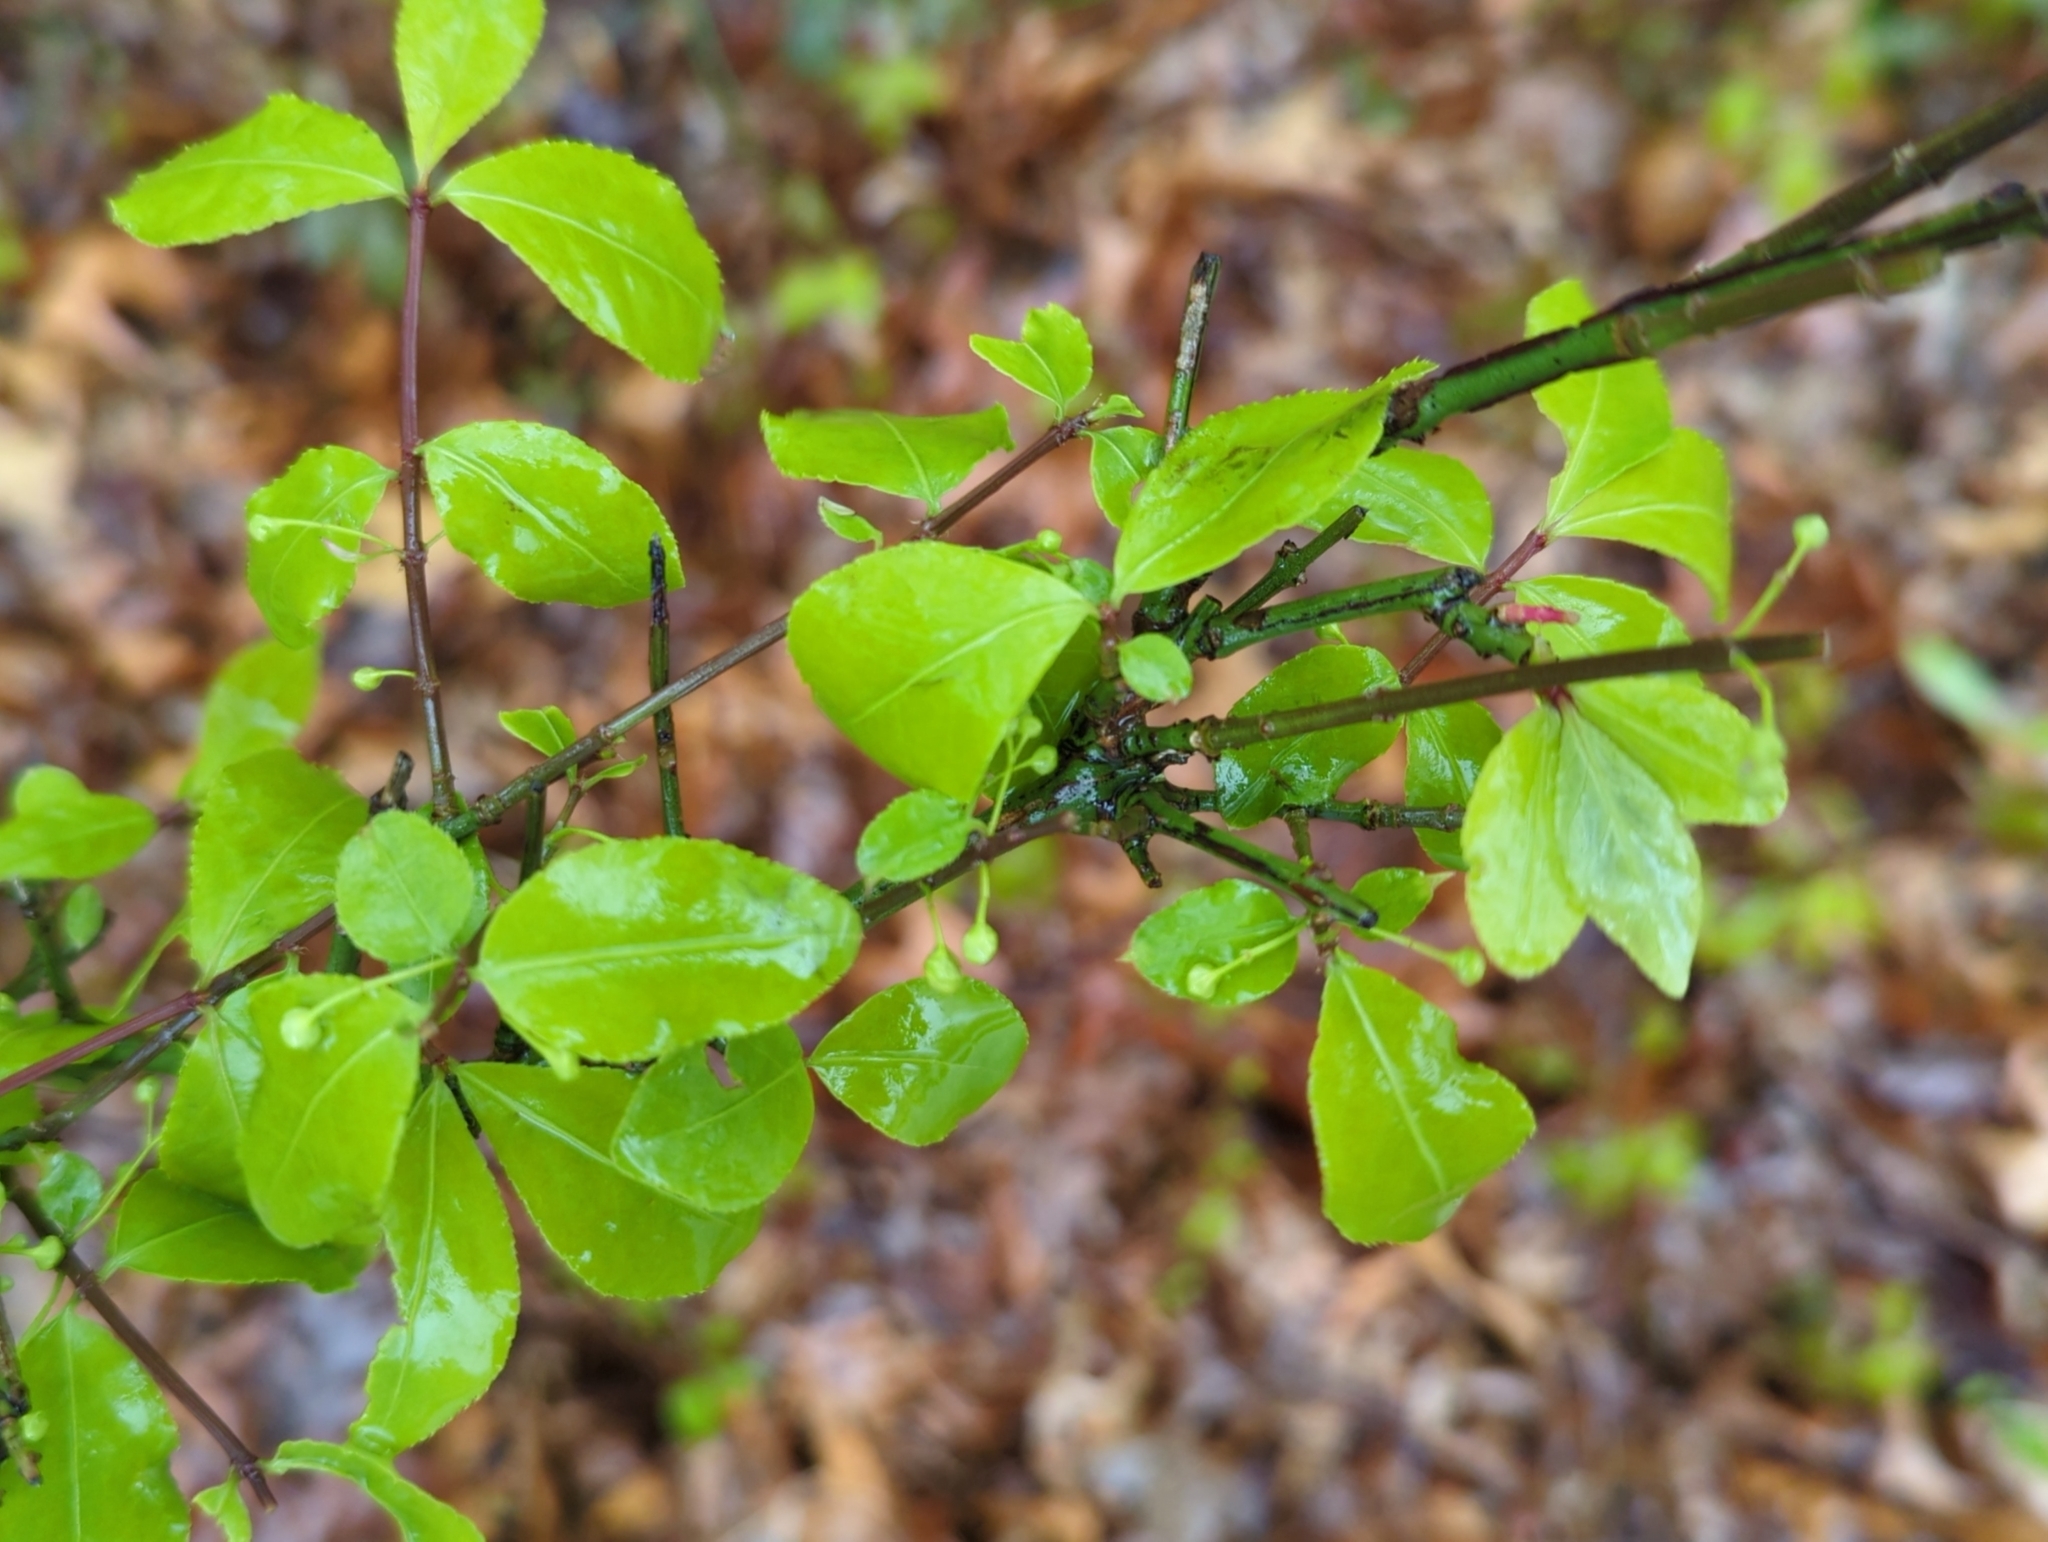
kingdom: Plantae
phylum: Tracheophyta
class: Magnoliopsida
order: Celastrales
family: Celastraceae
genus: Euonymus
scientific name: Euonymus alatus
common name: Winged euonymus
